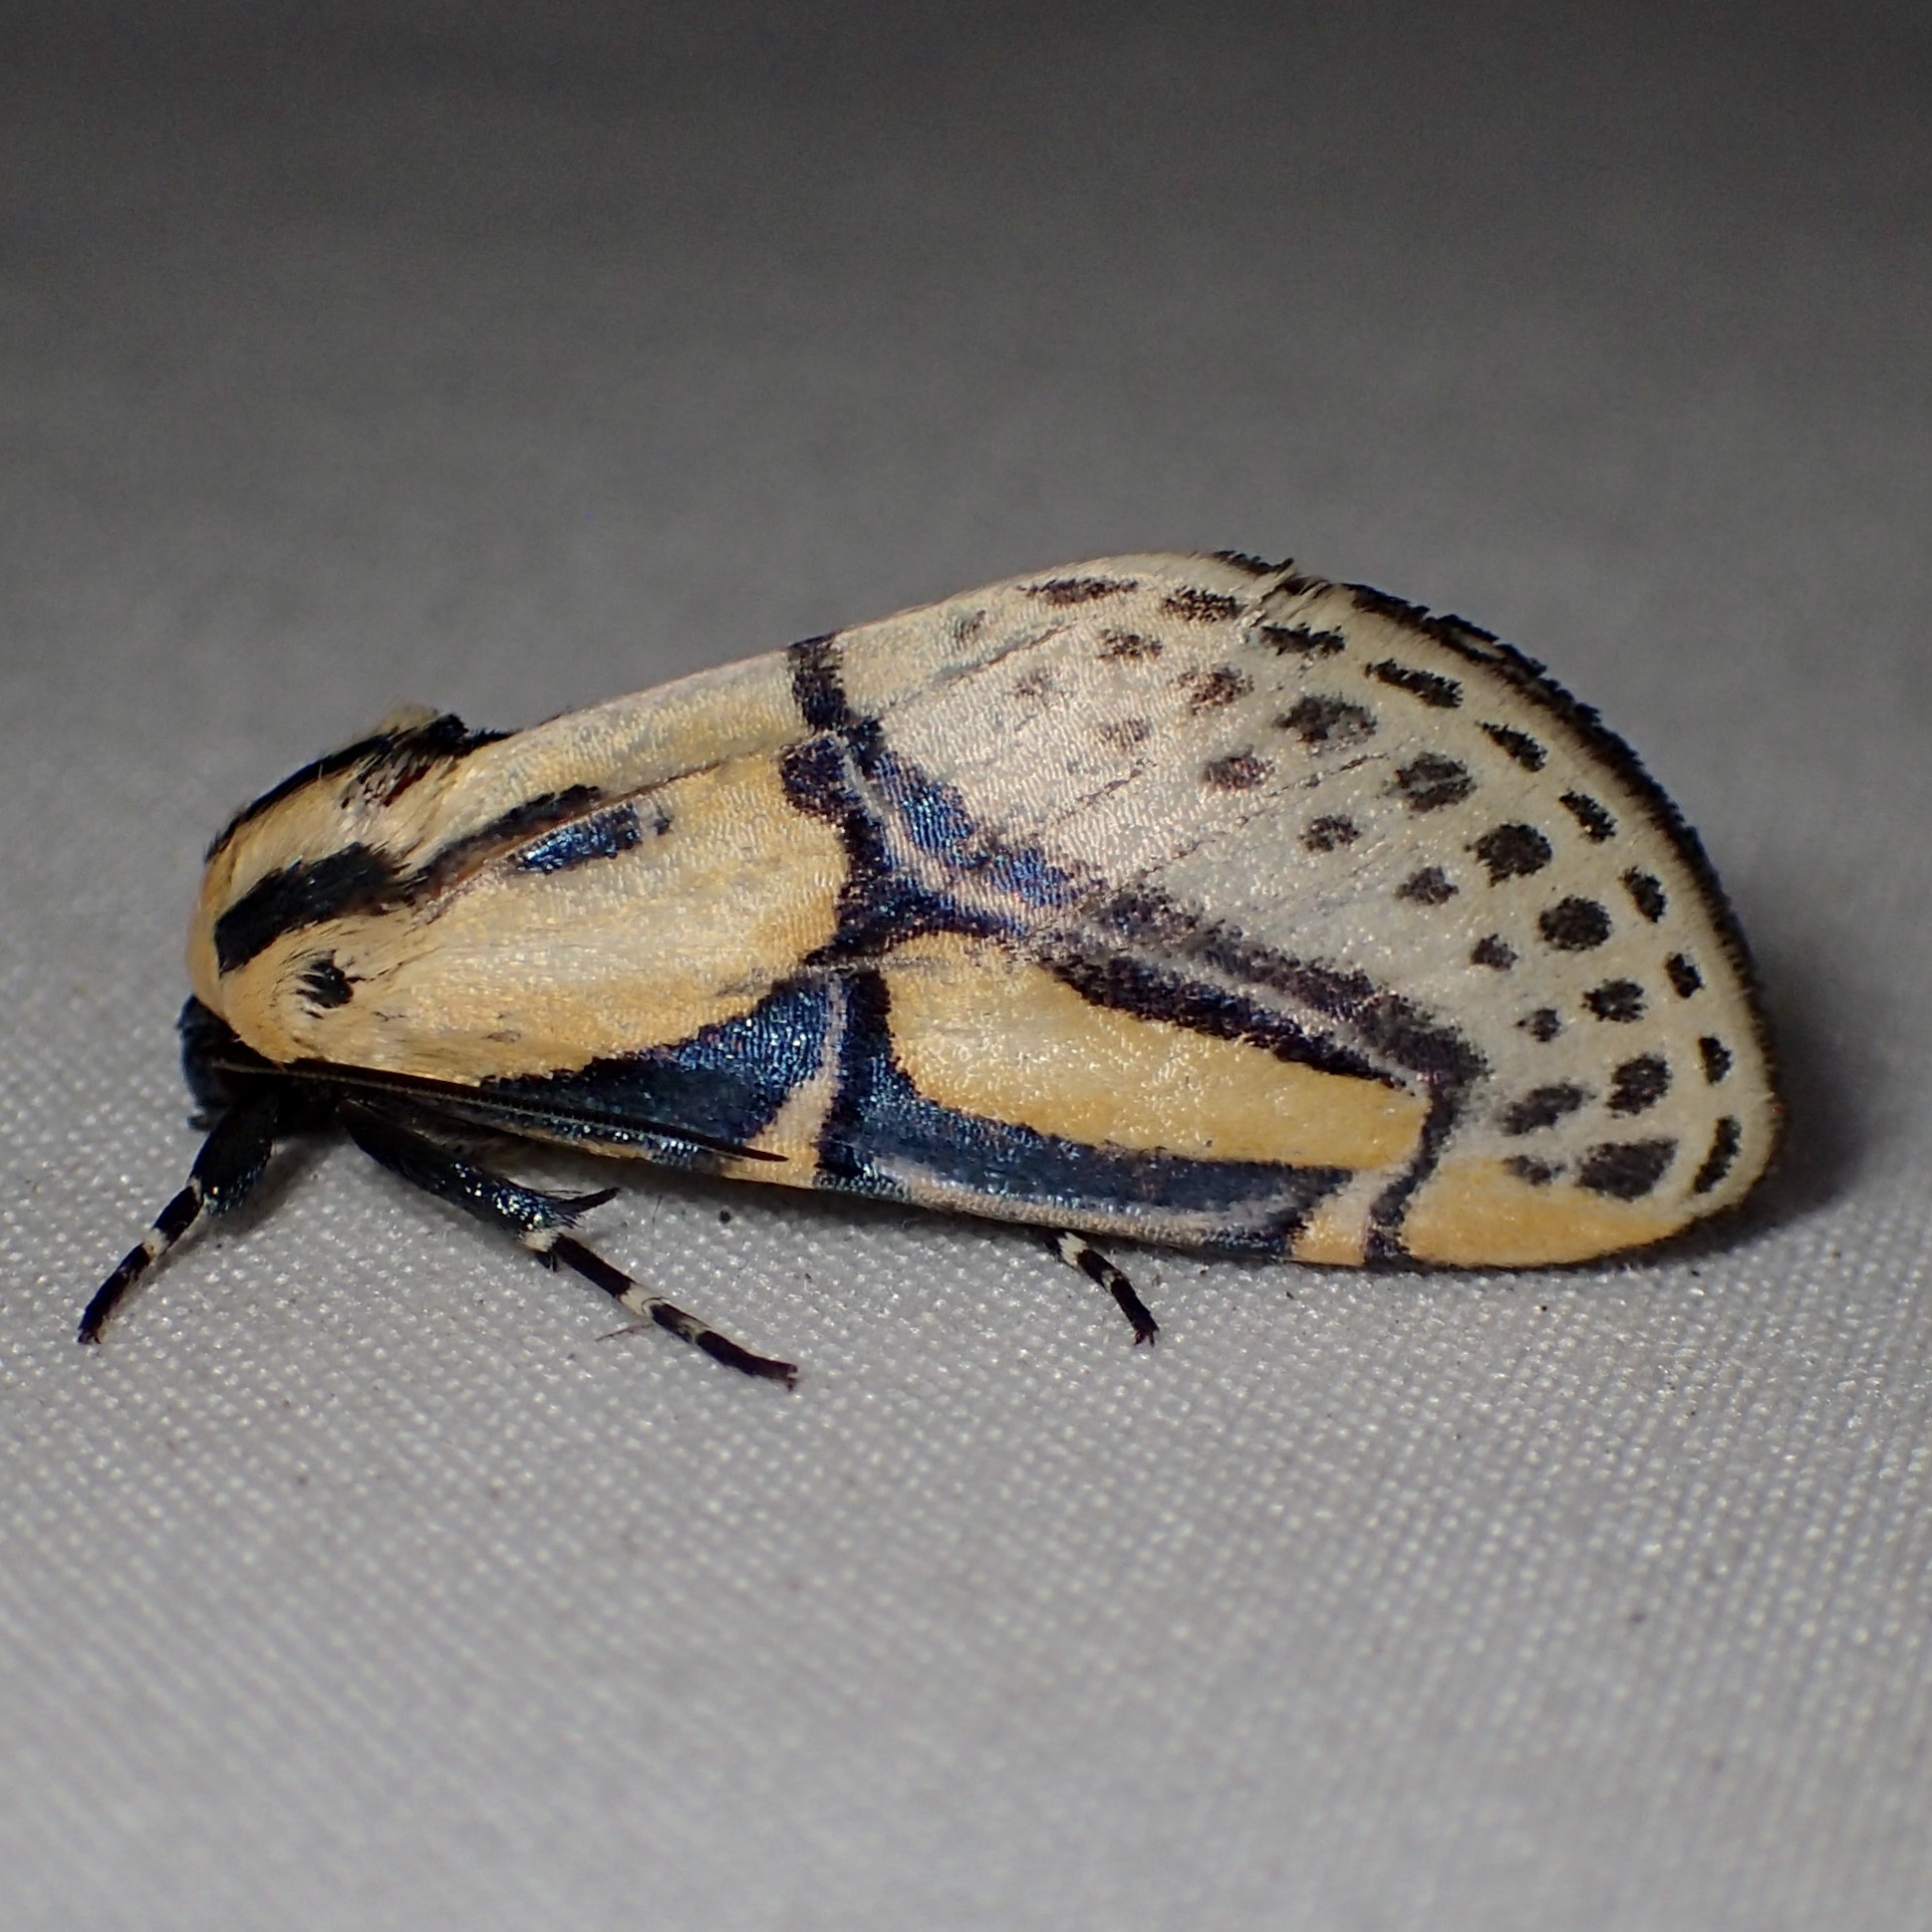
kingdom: Animalia
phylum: Arthropoda
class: Insecta
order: Lepidoptera
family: Erebidae
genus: Diphthera
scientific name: Diphthera festiva
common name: Hieroglyphic moth
